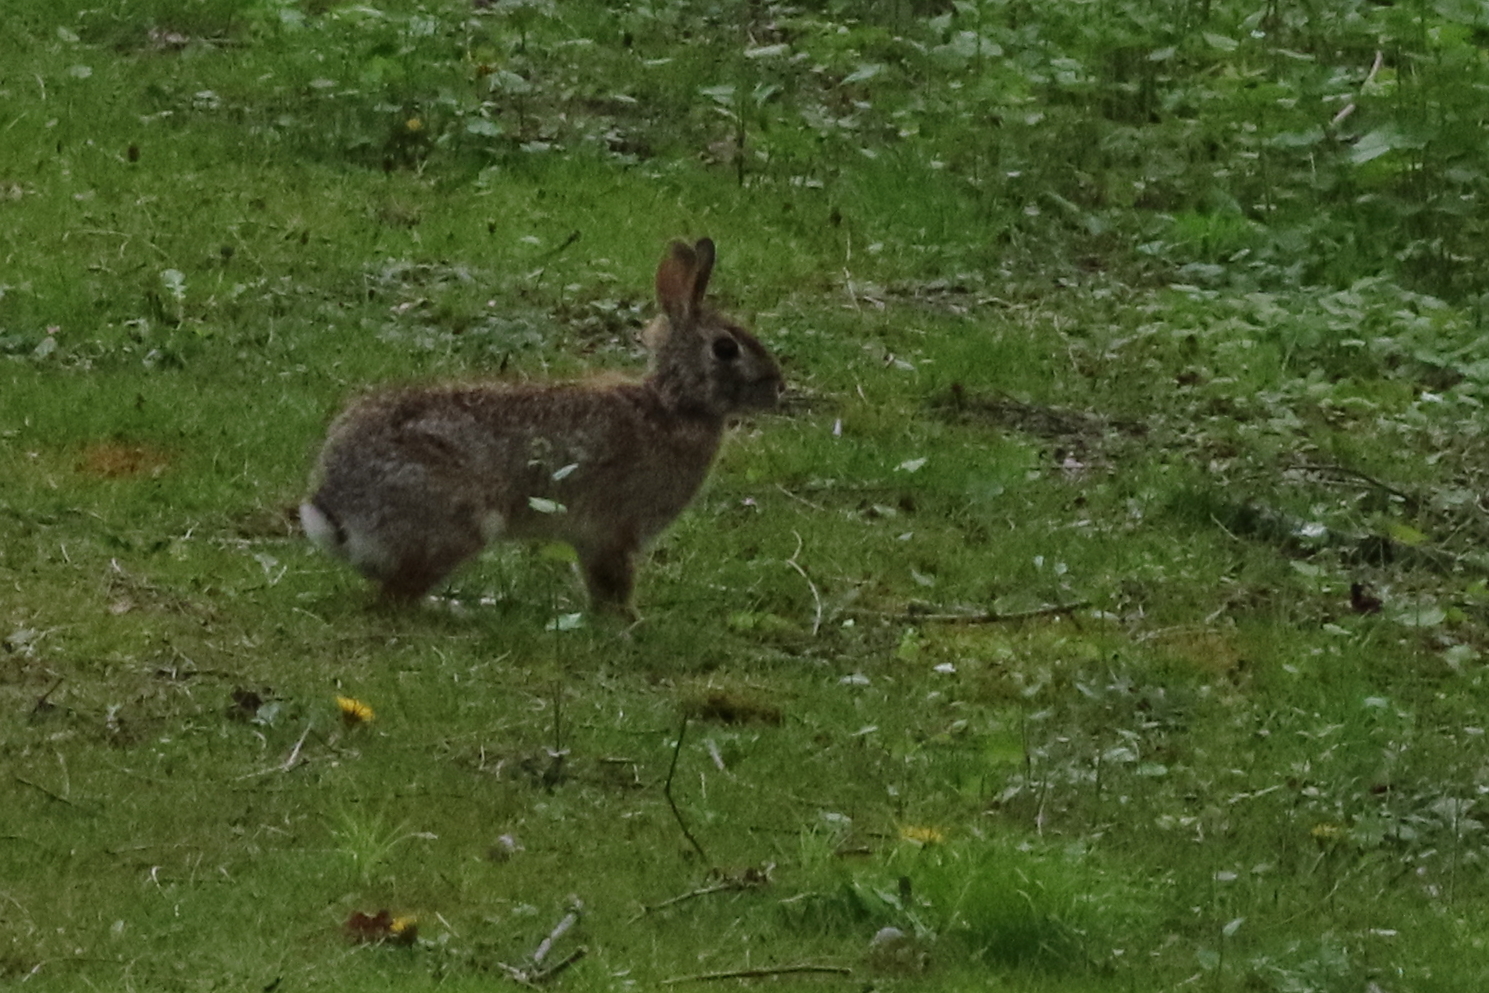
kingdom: Animalia
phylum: Chordata
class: Mammalia
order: Lagomorpha
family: Leporidae
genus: Sylvilagus
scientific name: Sylvilagus floridanus
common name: Eastern cottontail
